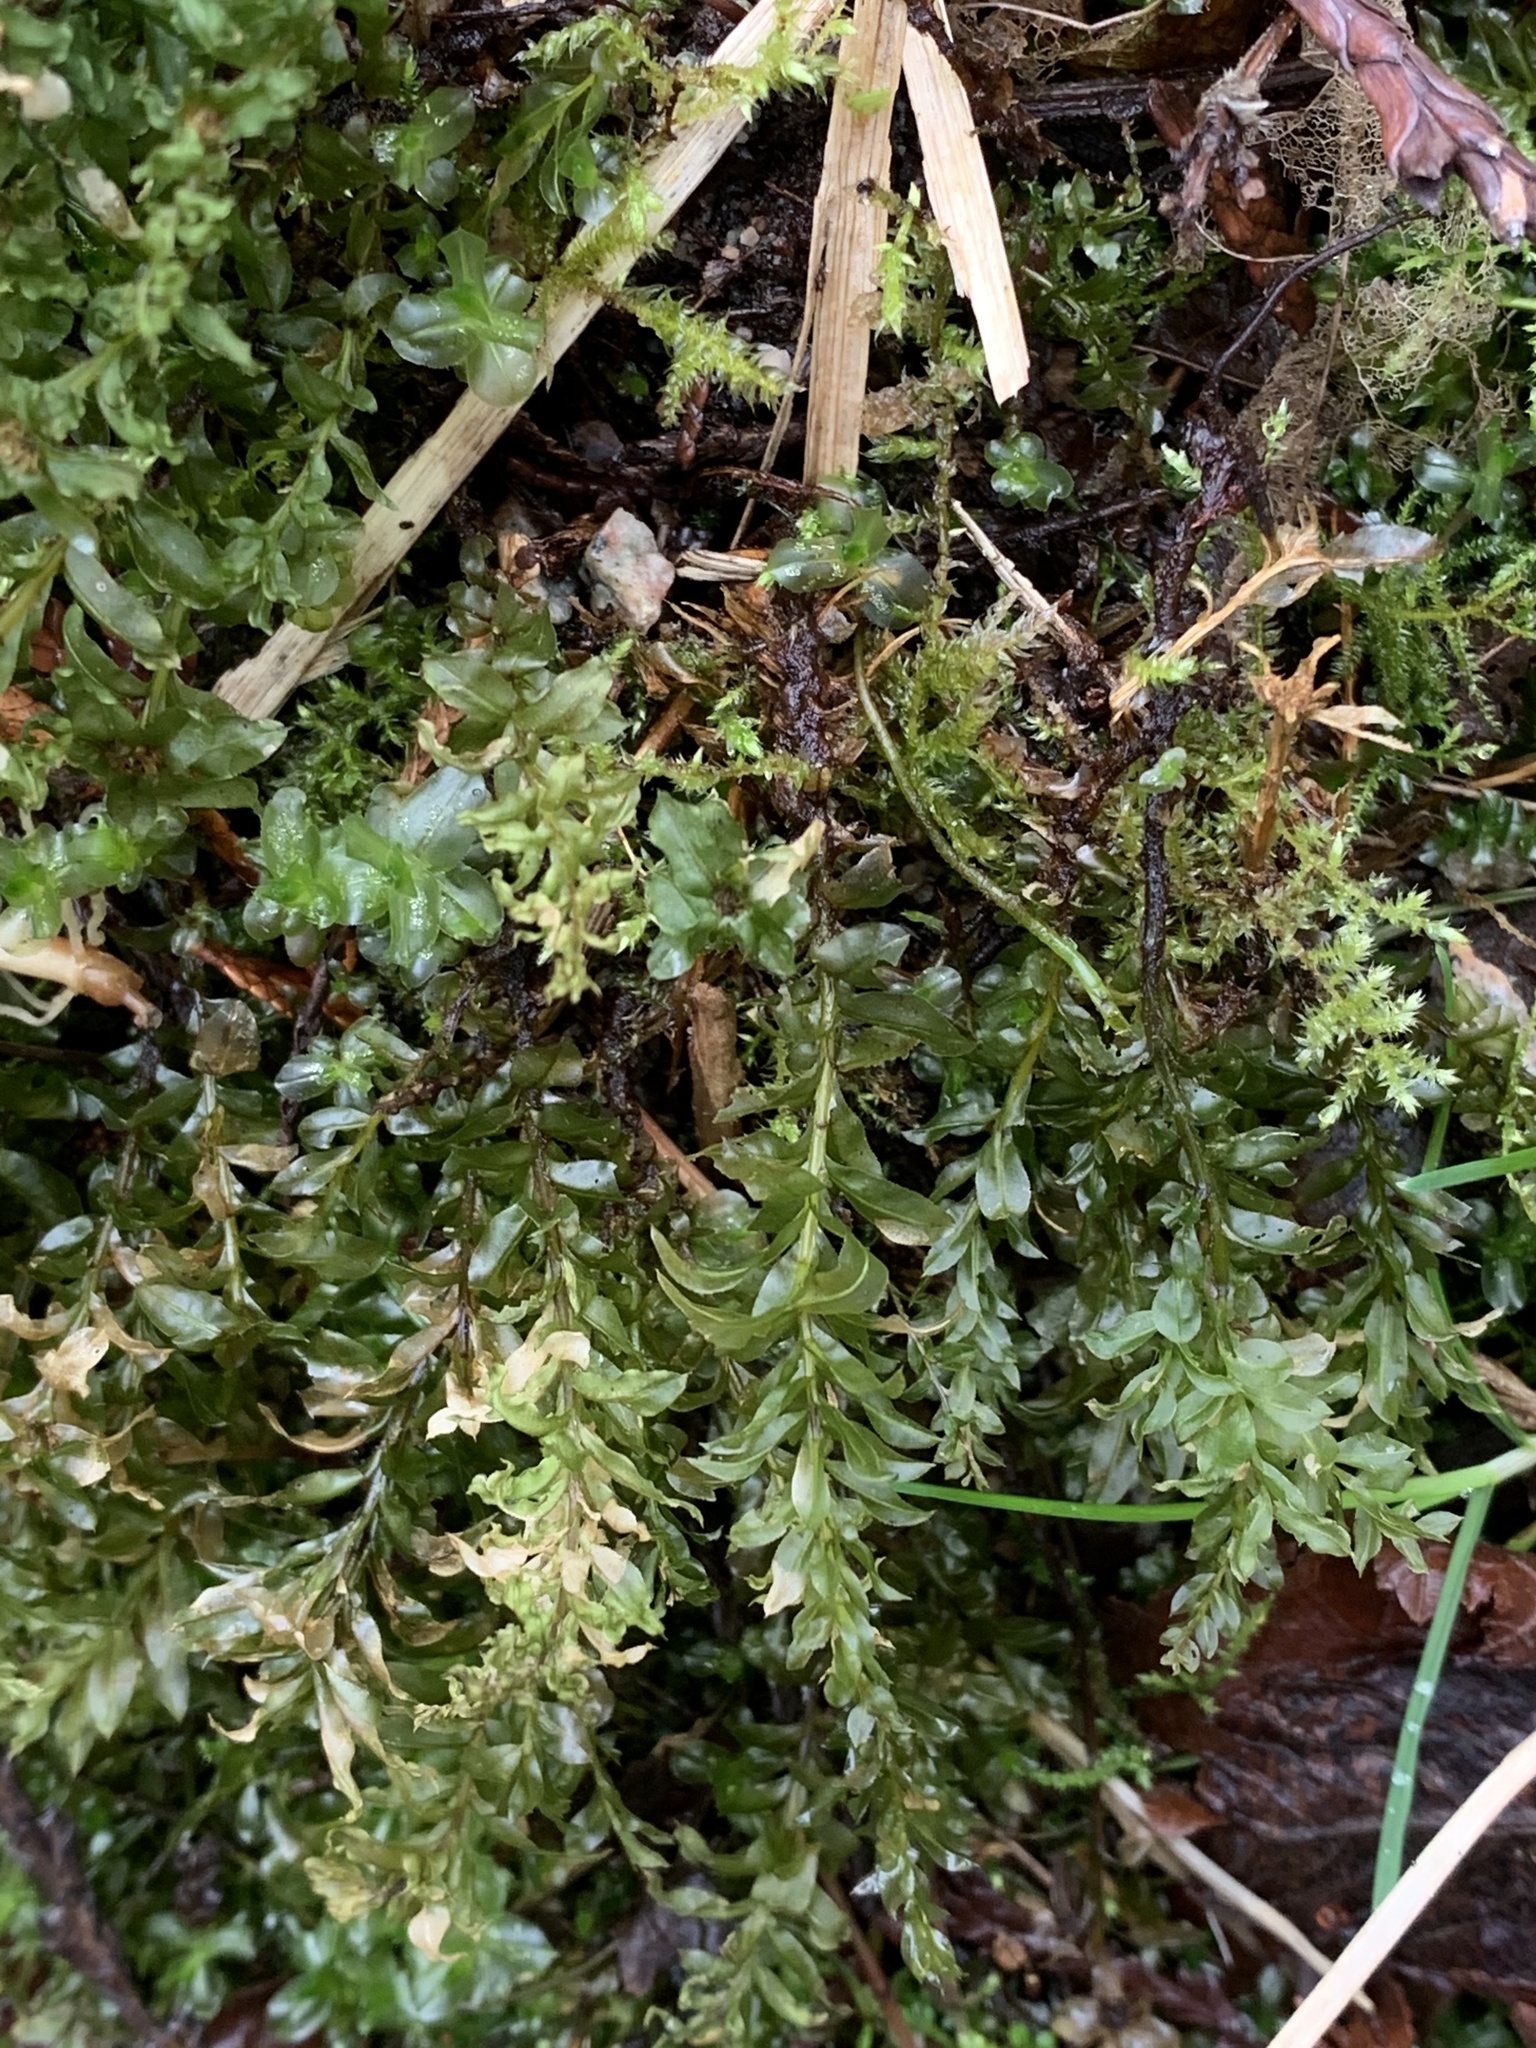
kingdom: Plantae
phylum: Bryophyta
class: Bryopsida
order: Bryales
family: Mniaceae
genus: Plagiomnium
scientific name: Plagiomnium insigne
